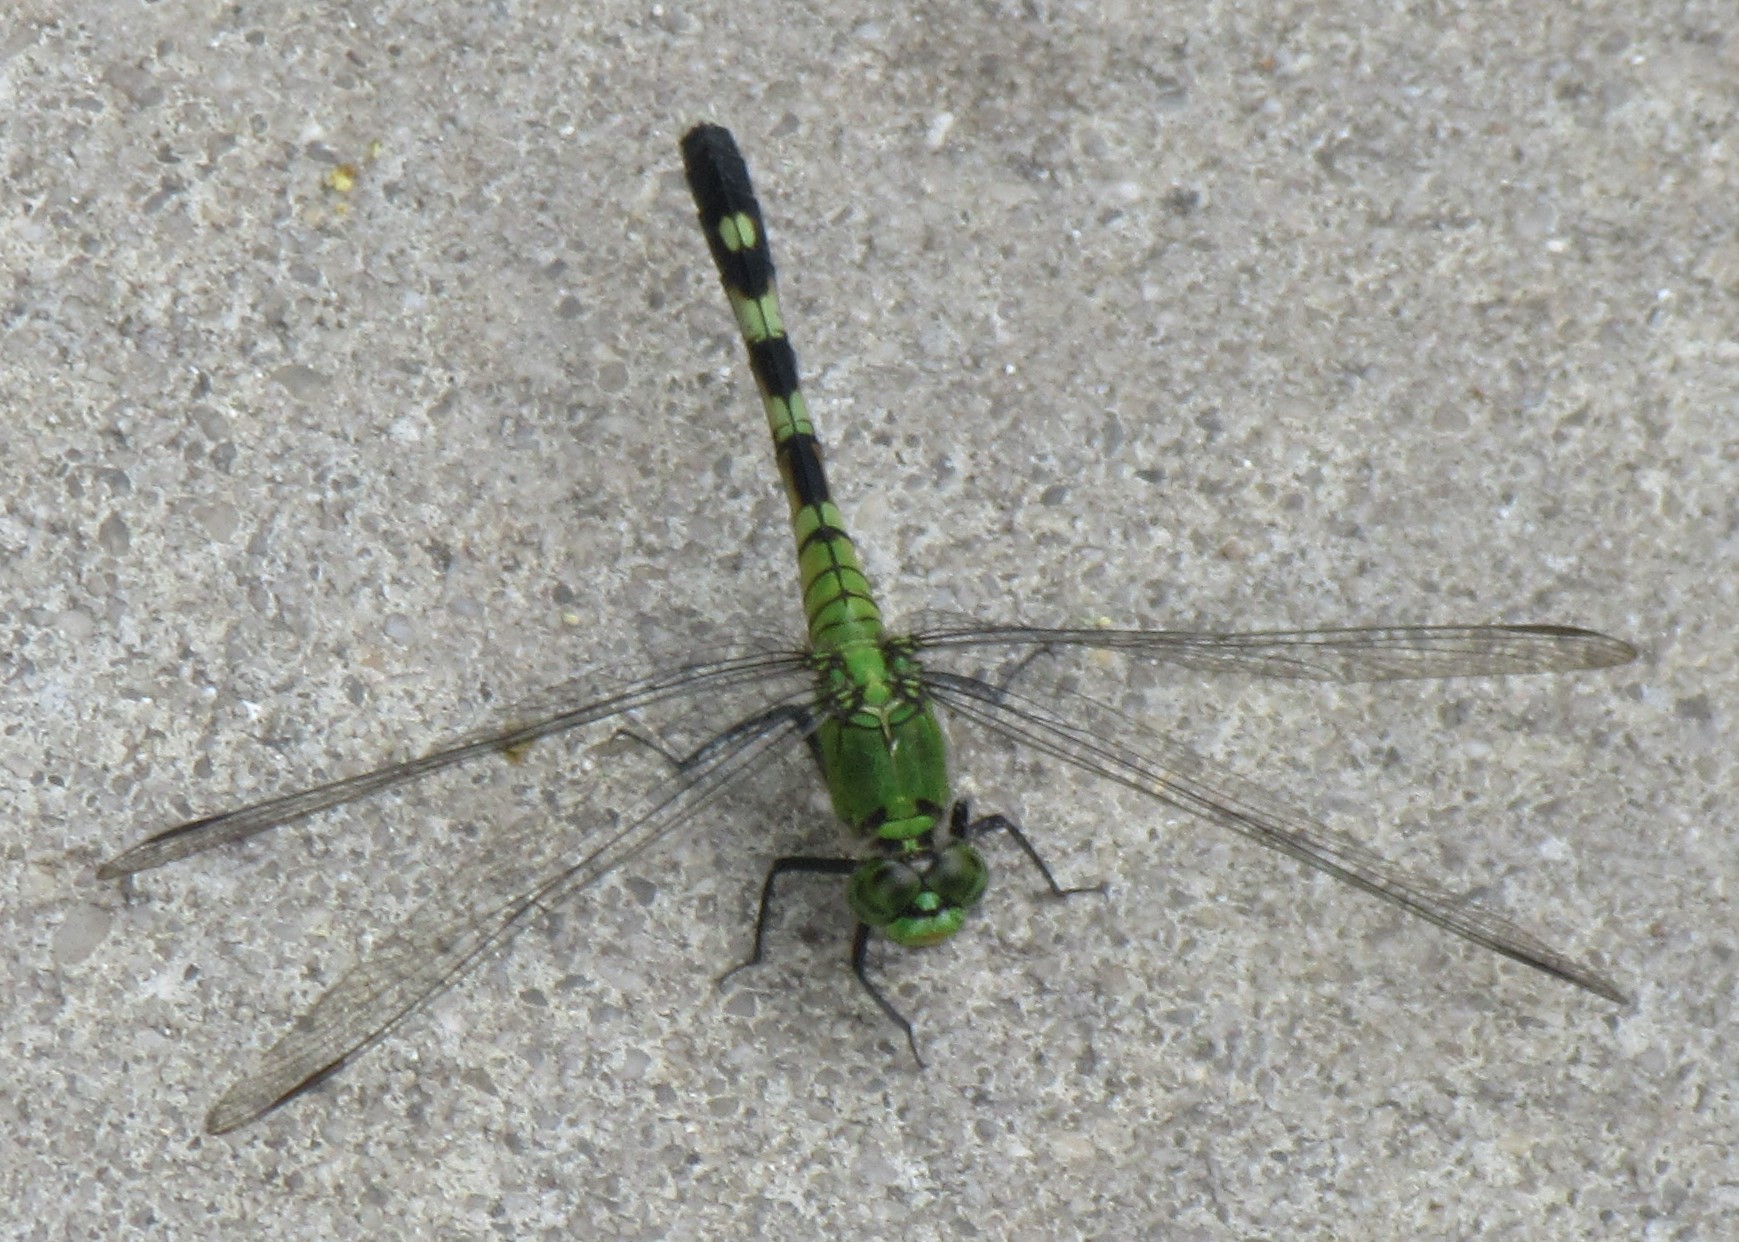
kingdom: Animalia
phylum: Arthropoda
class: Insecta
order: Odonata
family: Libellulidae
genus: Erythemis
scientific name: Erythemis simplicicollis
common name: Eastern pondhawk
